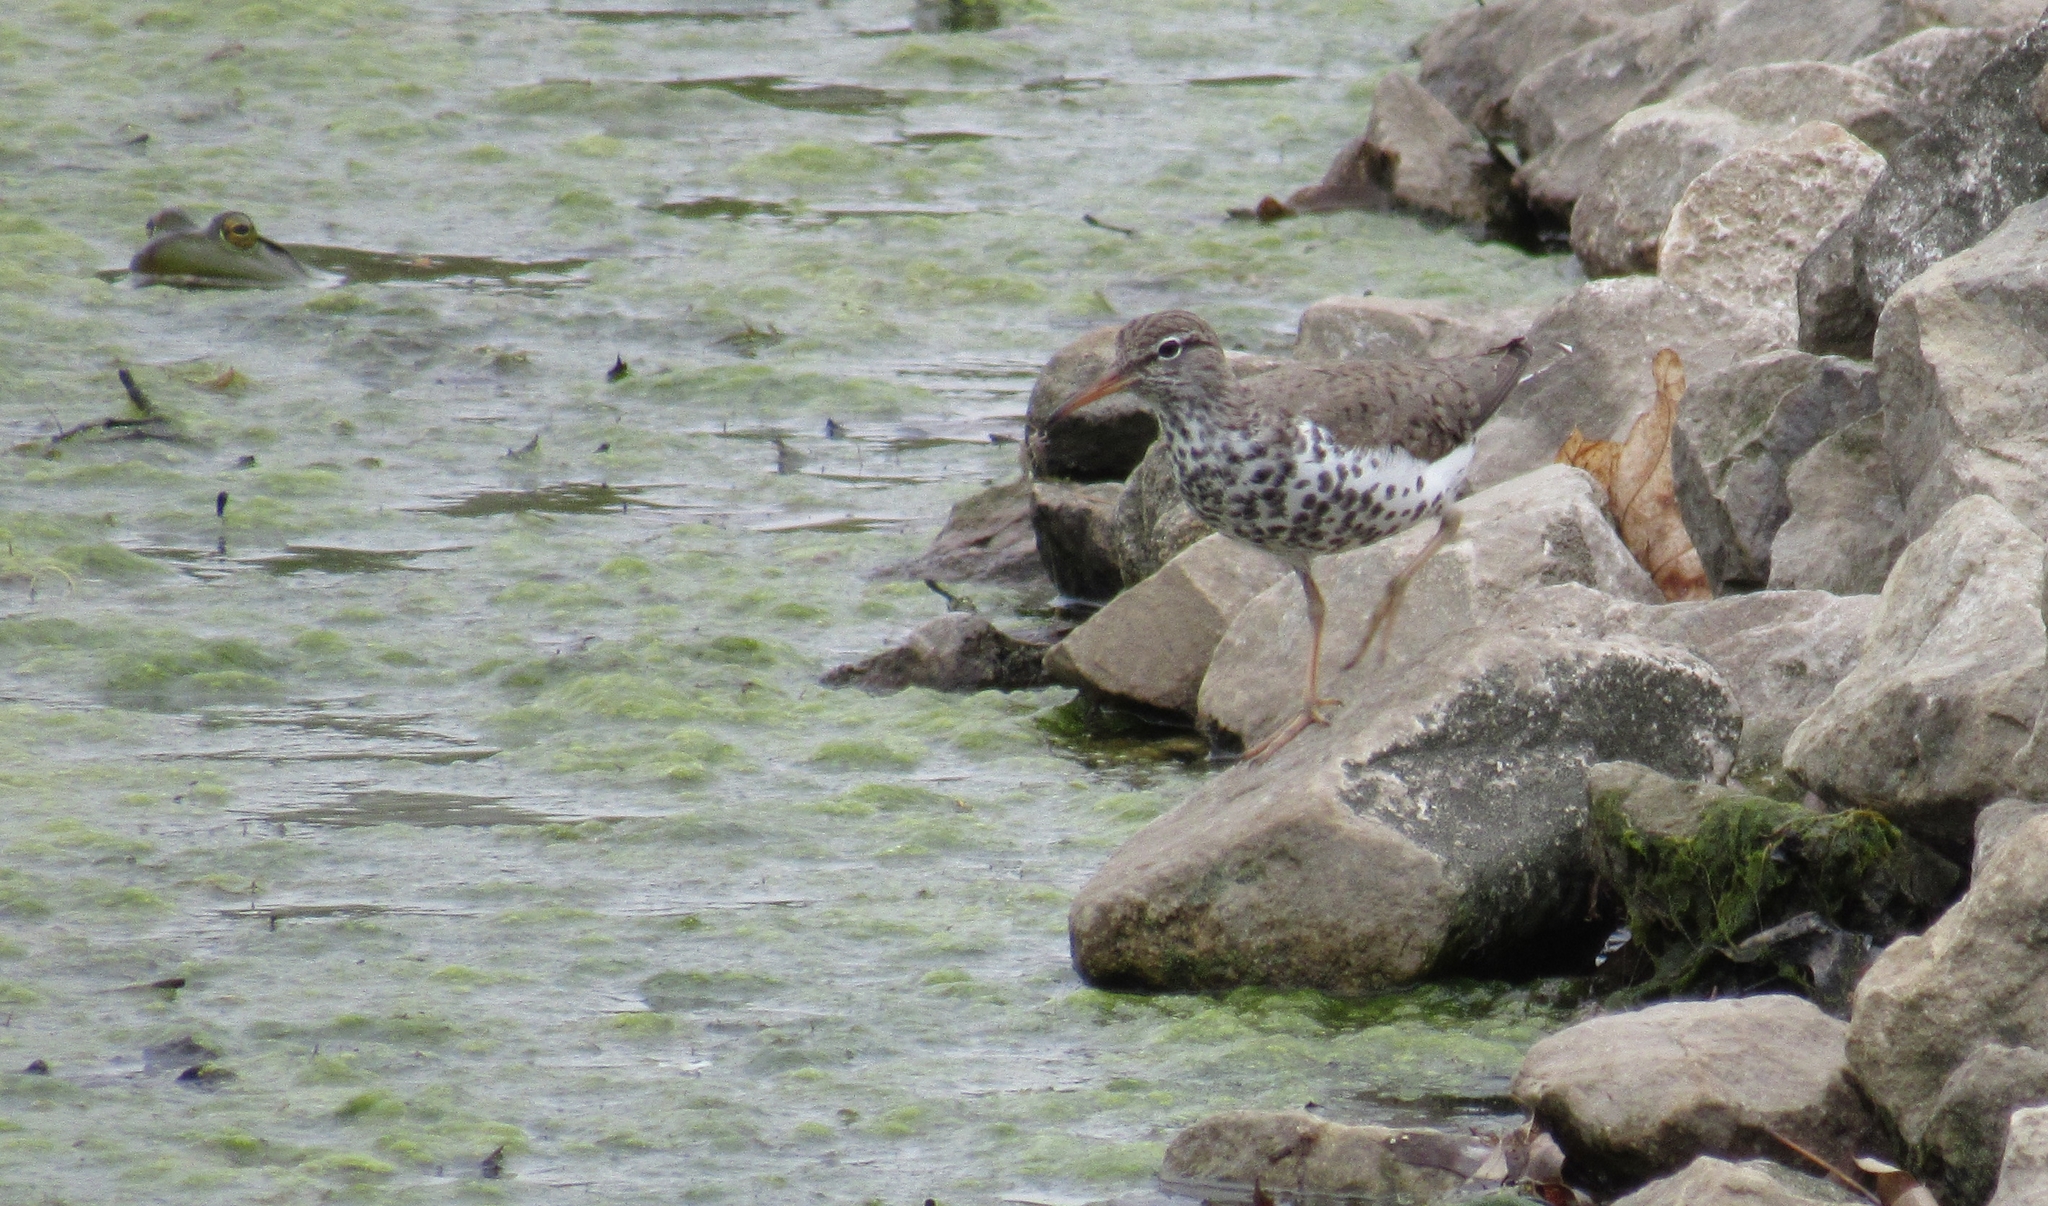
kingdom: Animalia
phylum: Chordata
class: Aves
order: Charadriiformes
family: Scolopacidae
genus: Actitis
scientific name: Actitis macularius
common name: Spotted sandpiper
